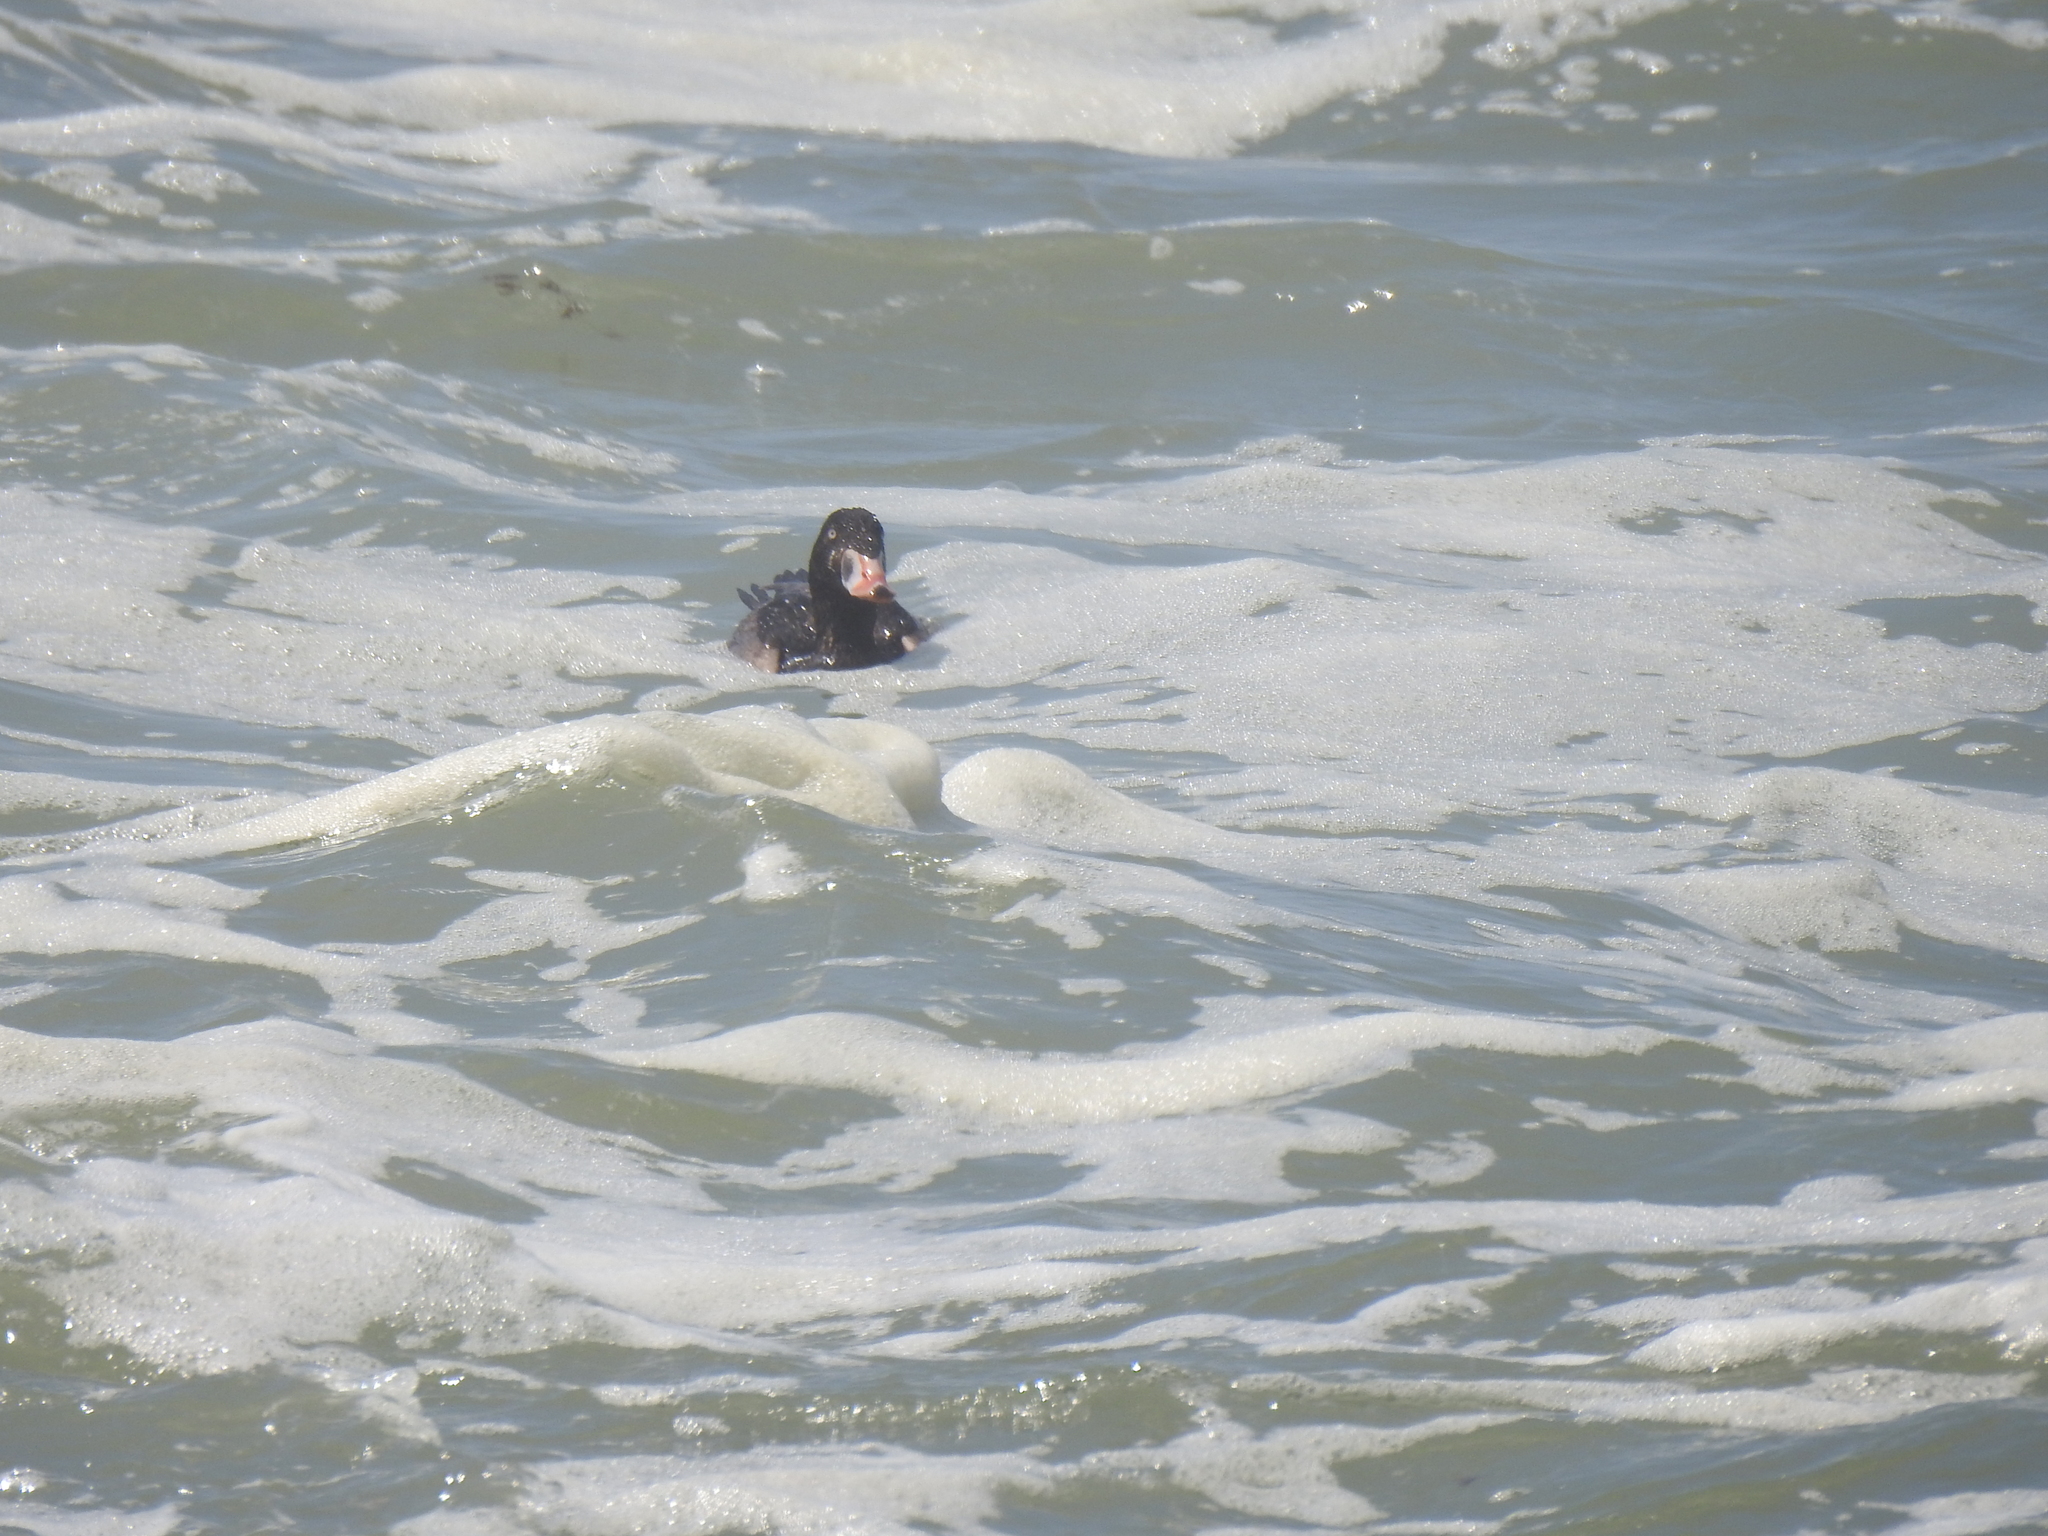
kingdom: Animalia
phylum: Chordata
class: Aves
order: Anseriformes
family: Anatidae
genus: Melanitta
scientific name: Melanitta perspicillata
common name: Surf scoter
